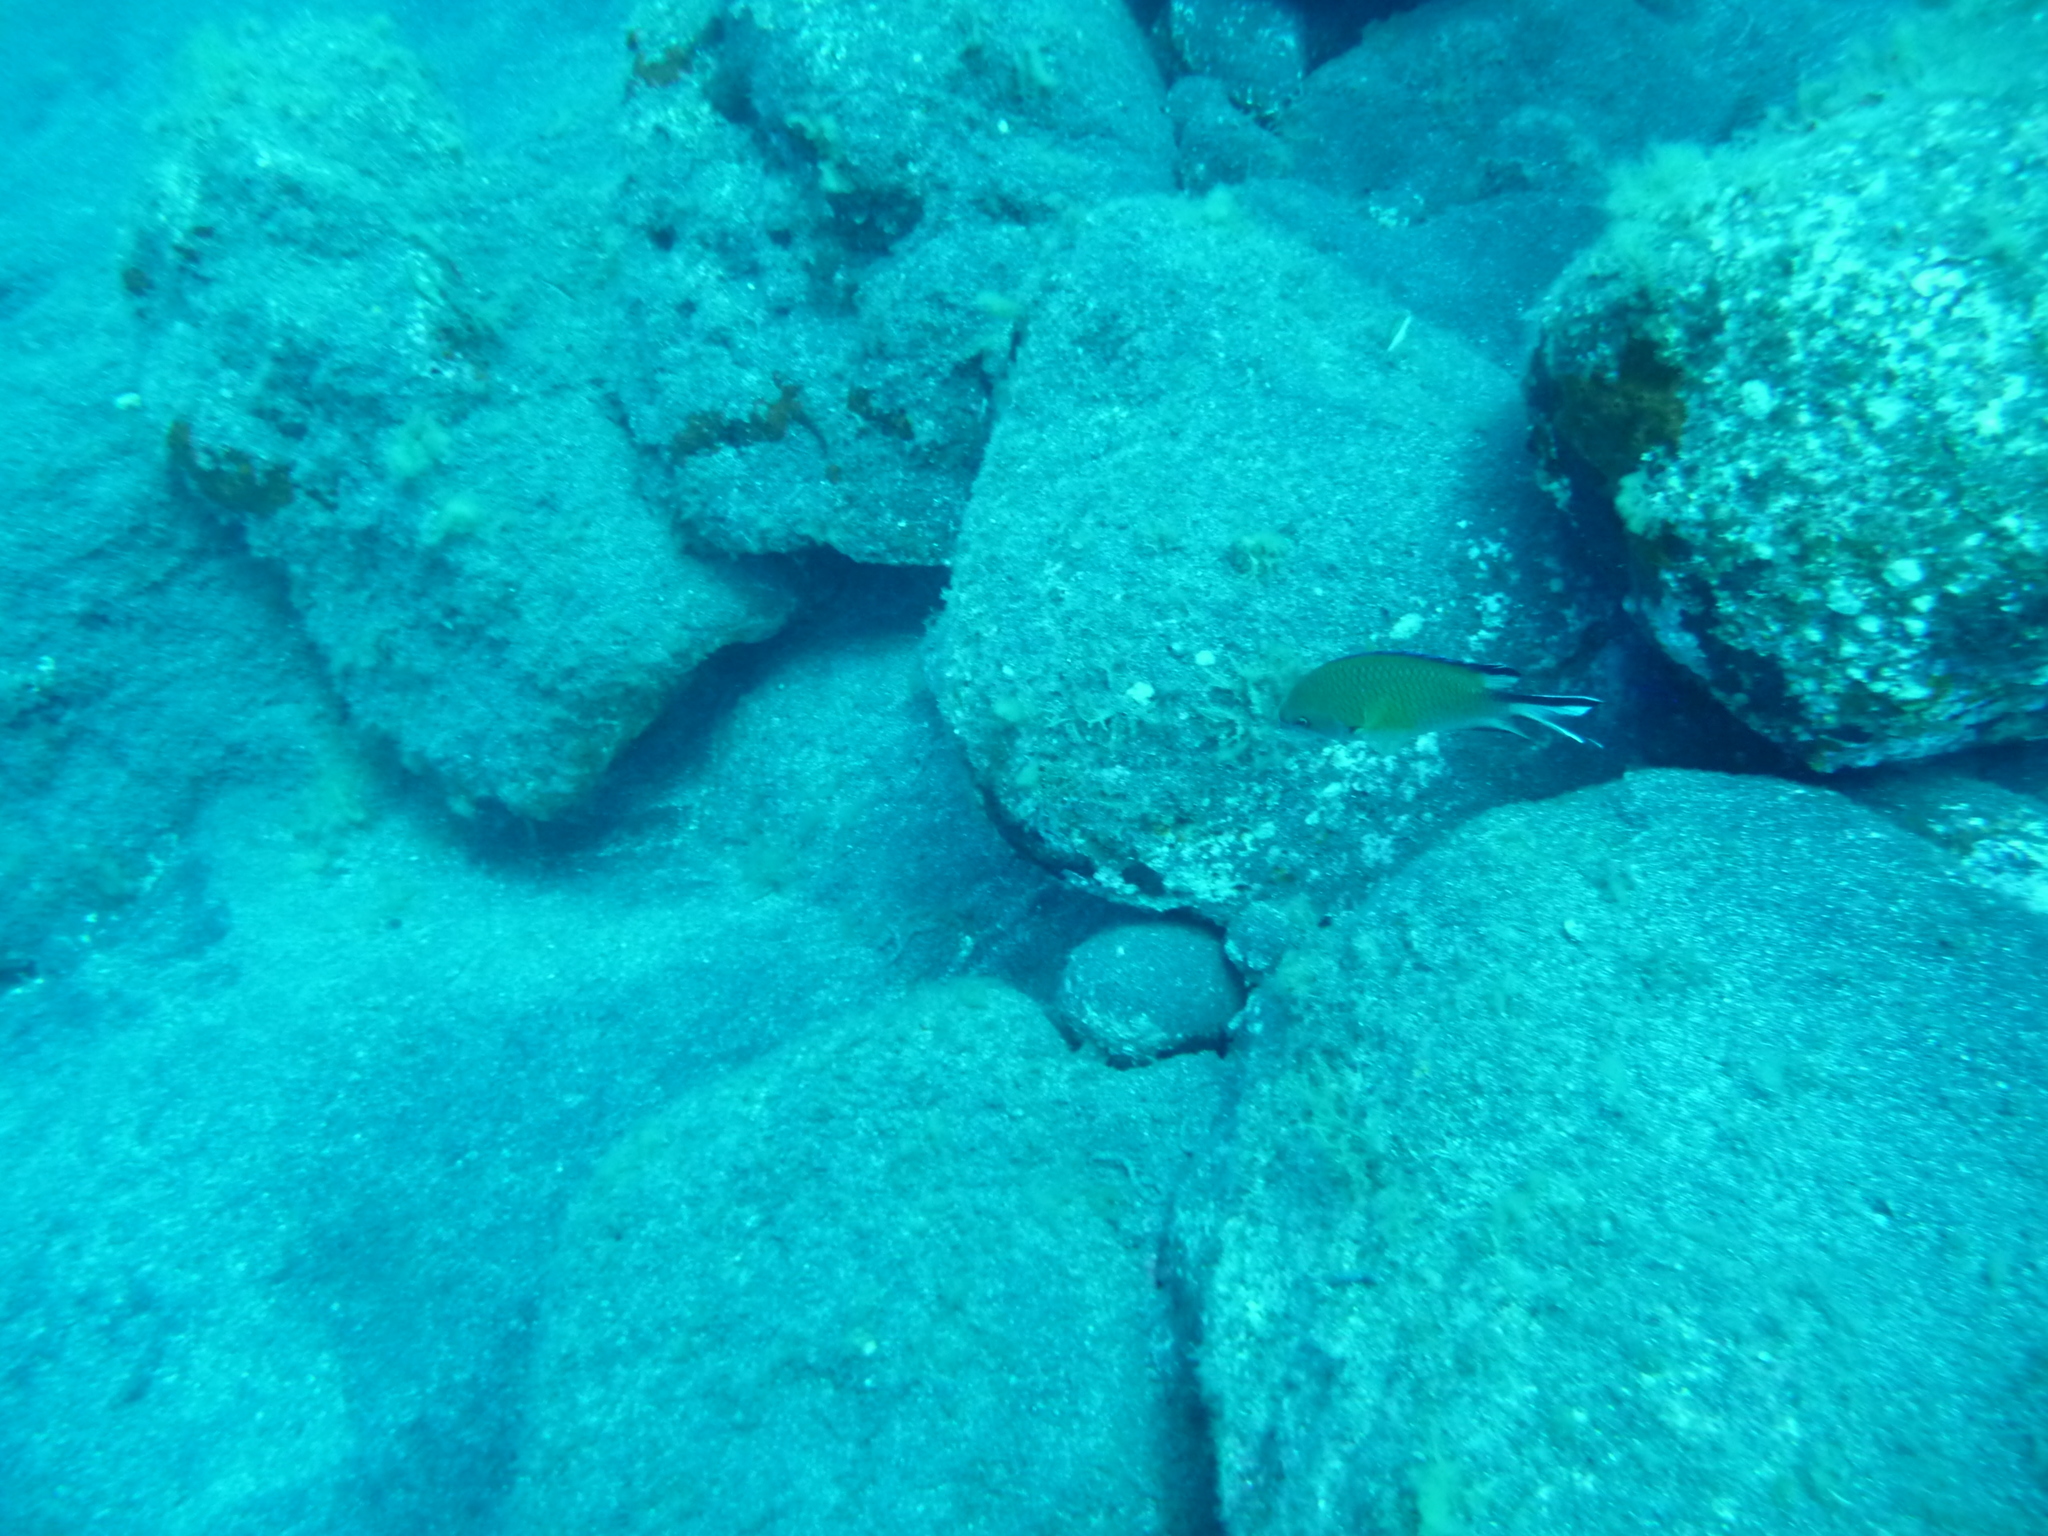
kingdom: Animalia
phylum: Chordata
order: Perciformes
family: Pomacentridae
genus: Chromis
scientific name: Chromis limbata
